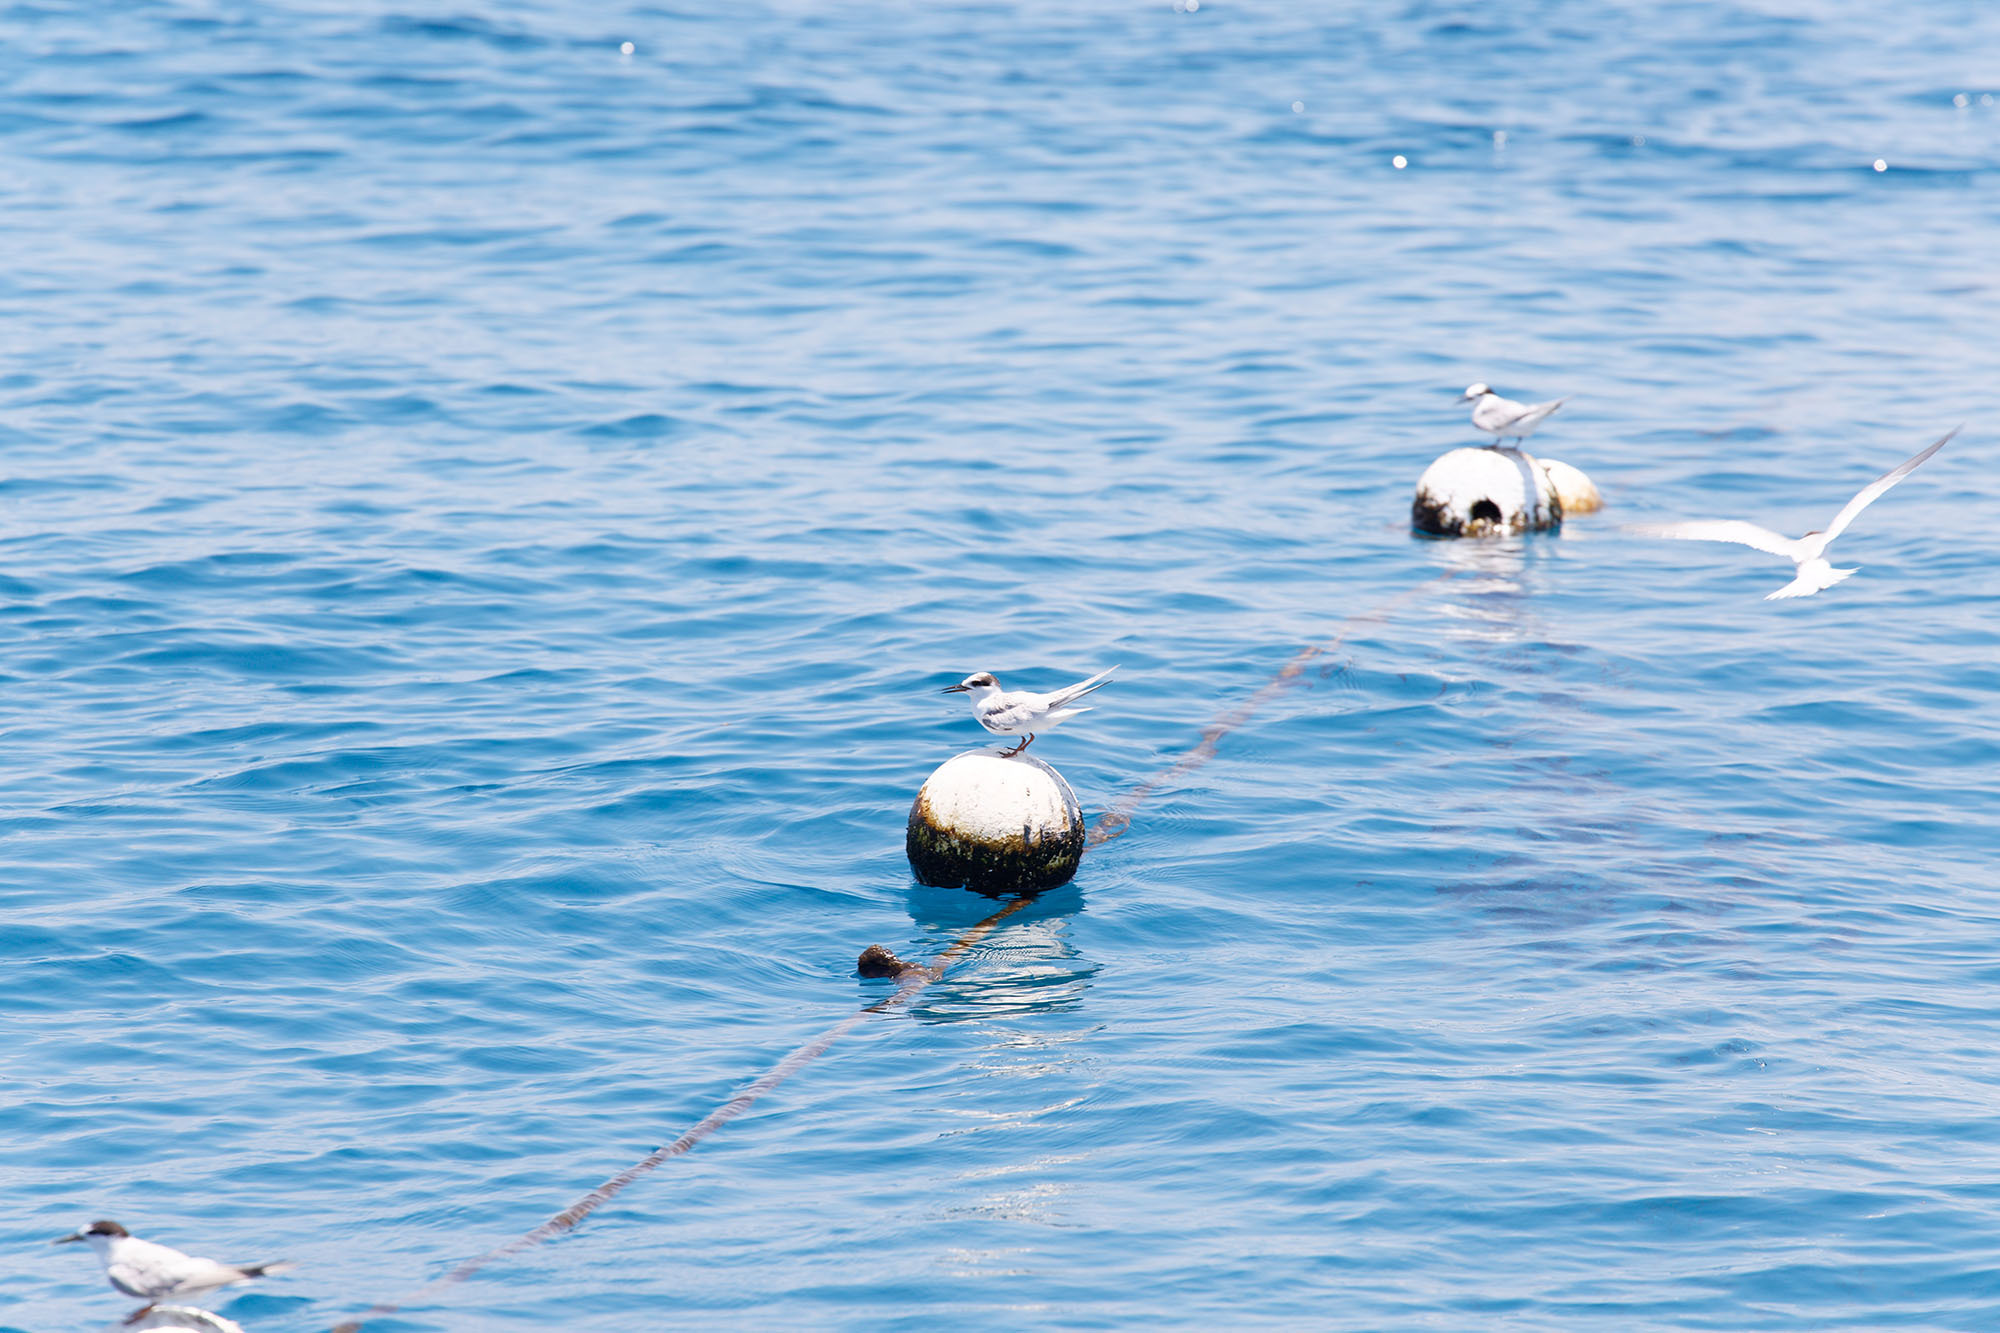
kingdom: Animalia
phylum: Chordata
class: Aves
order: Charadriiformes
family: Laridae
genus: Sterna
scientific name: Sterna sumatrana
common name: Black-naped tern
